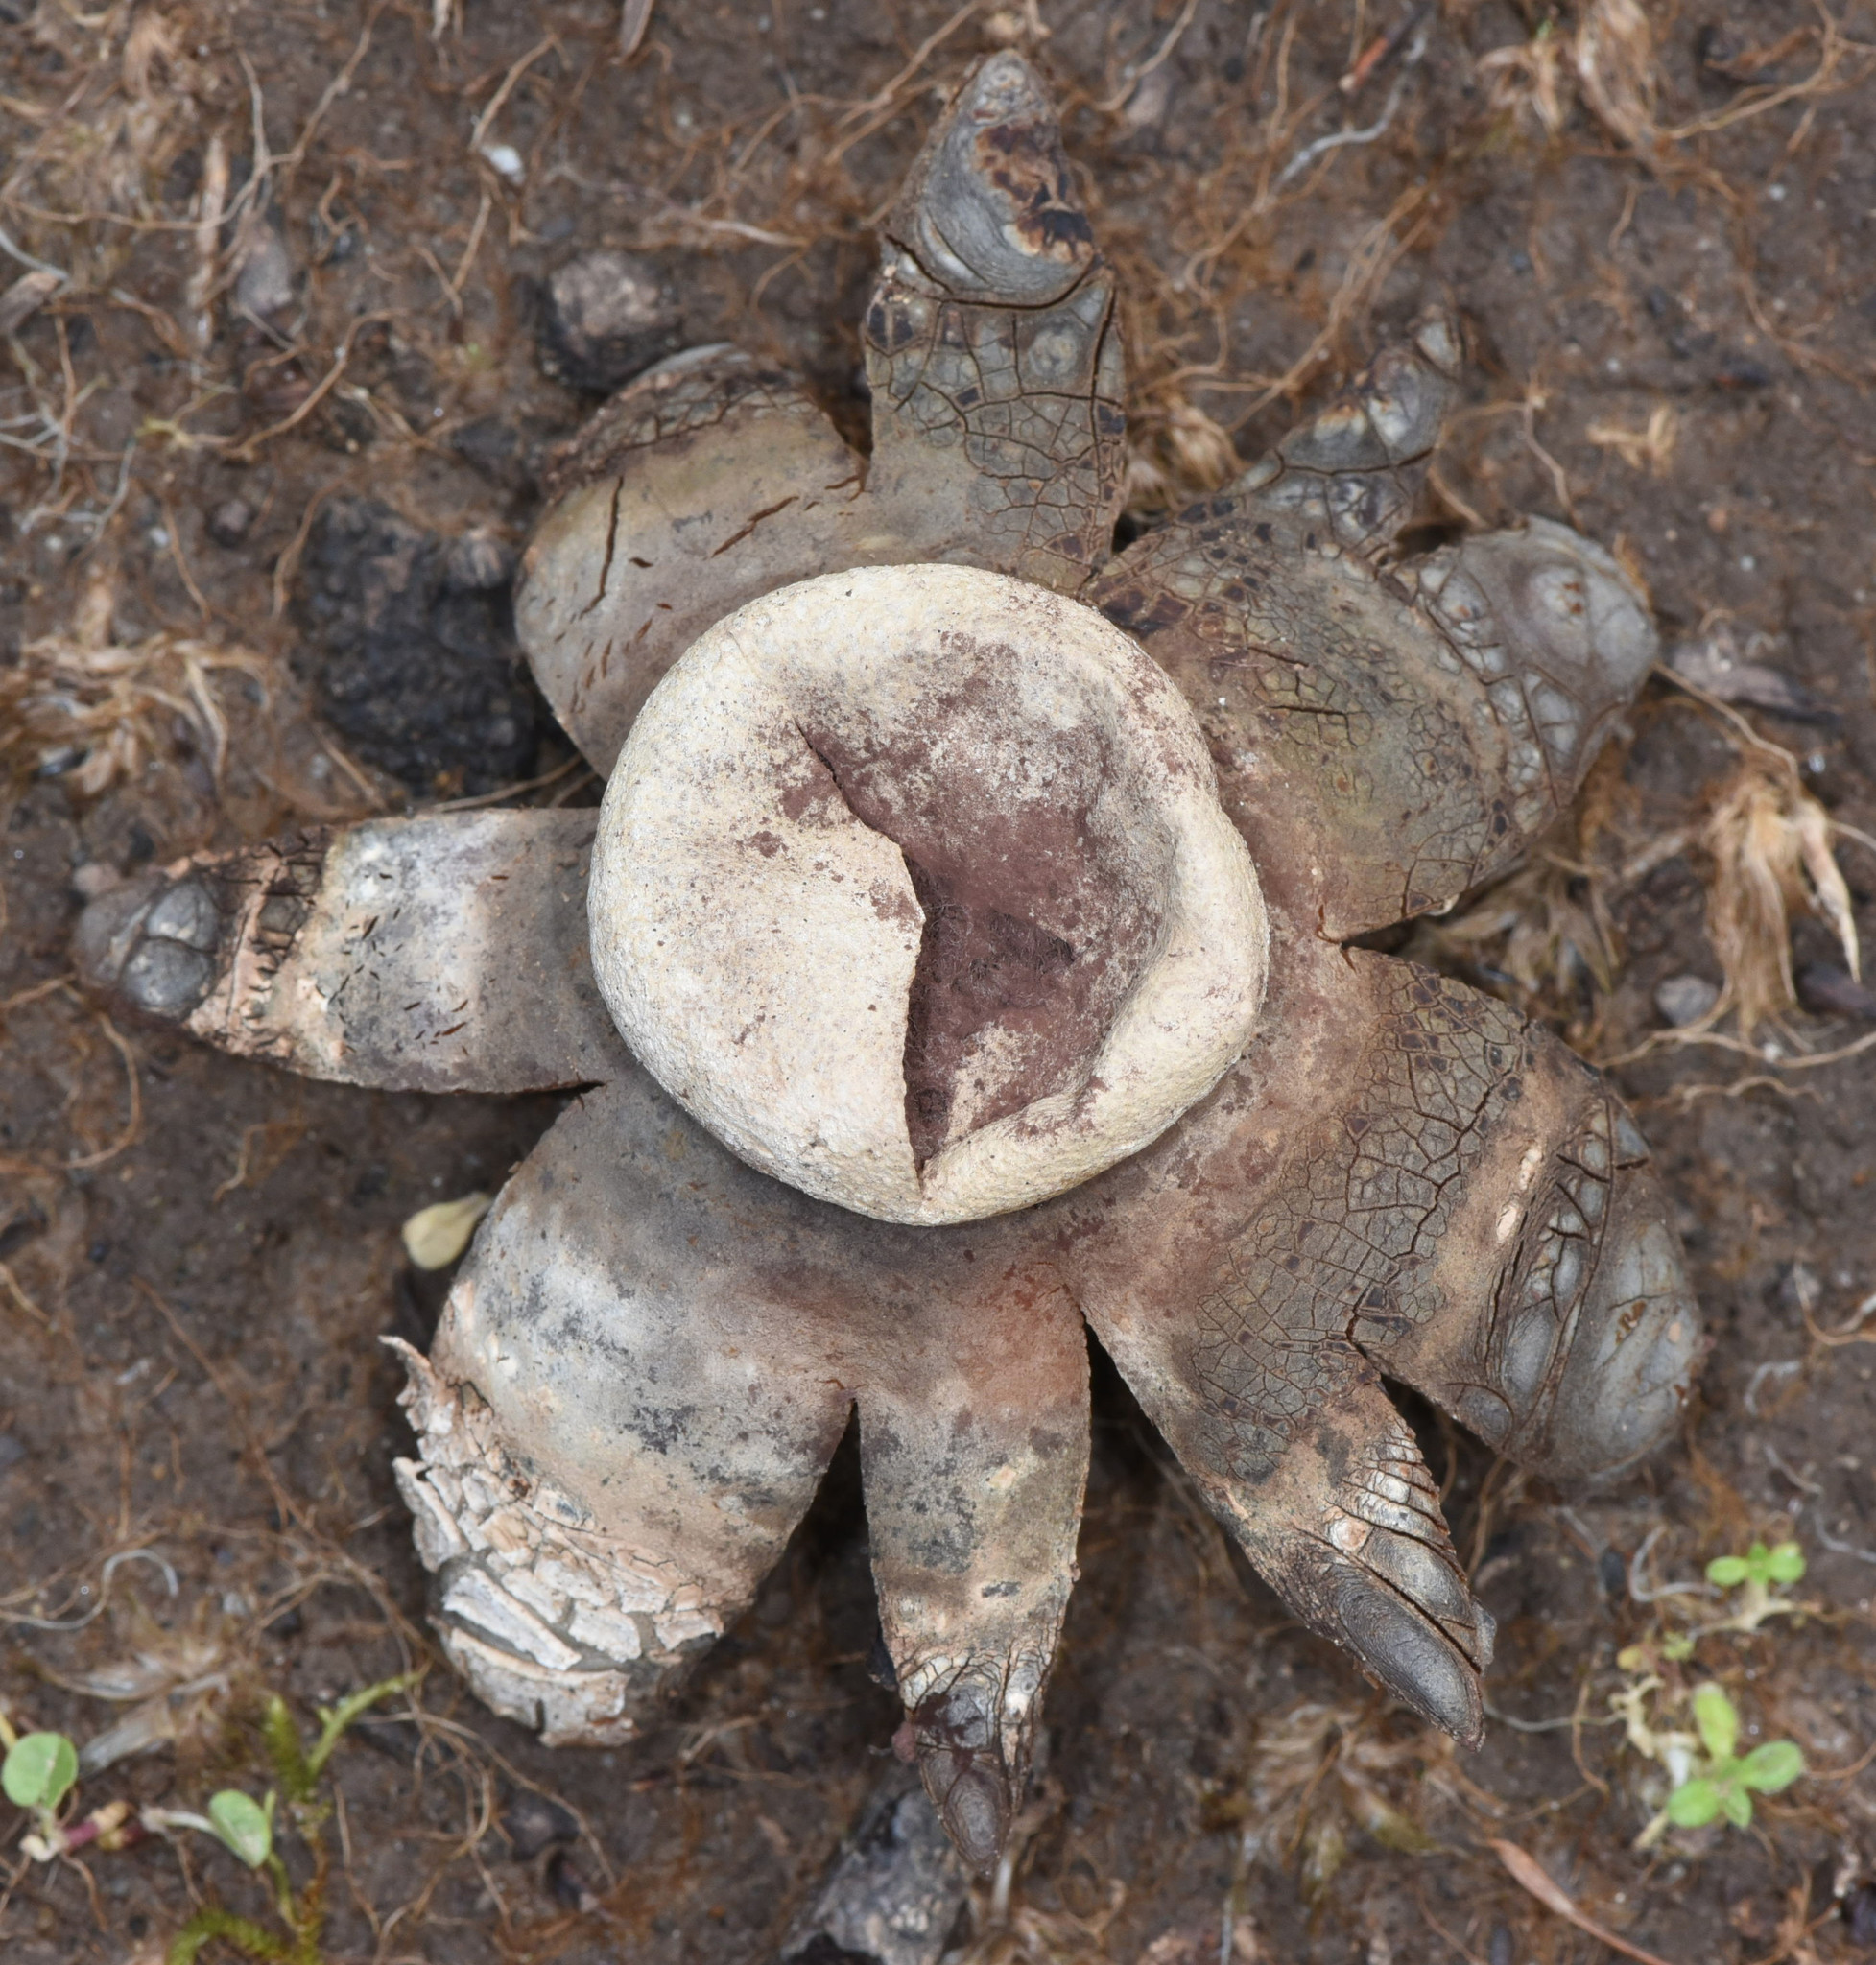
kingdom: Fungi
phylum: Basidiomycota
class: Agaricomycetes
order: Boletales
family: Diplocystidiaceae
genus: Astraeus
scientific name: Astraeus hygrometricus
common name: Barometer earthstar
